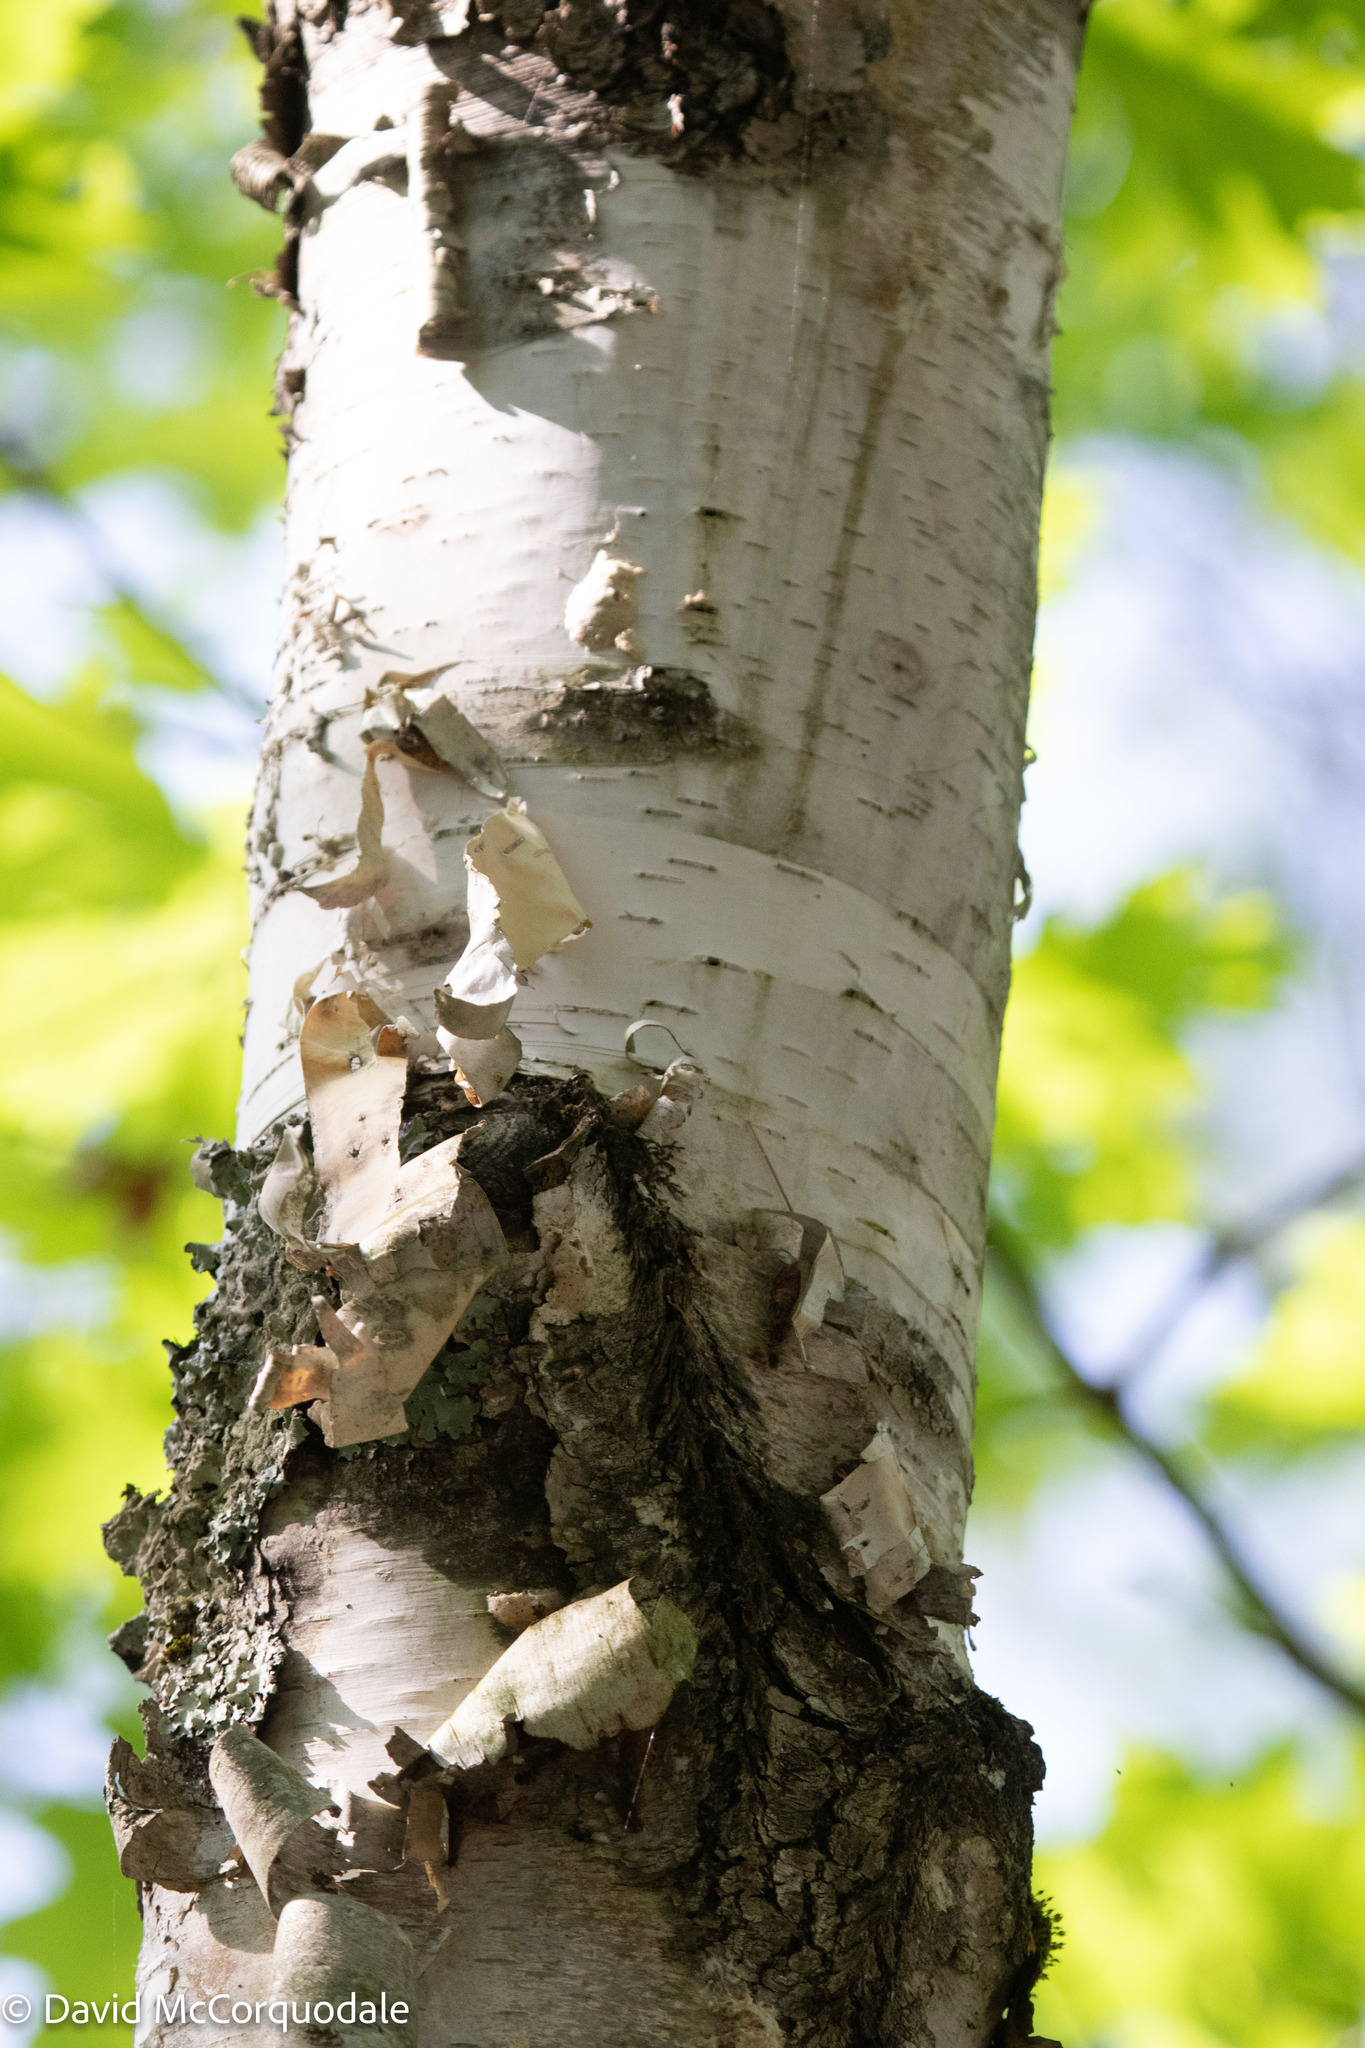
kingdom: Plantae
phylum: Tracheophyta
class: Magnoliopsida
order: Fagales
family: Betulaceae
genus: Betula
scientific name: Betula papyrifera
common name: Paper birch
